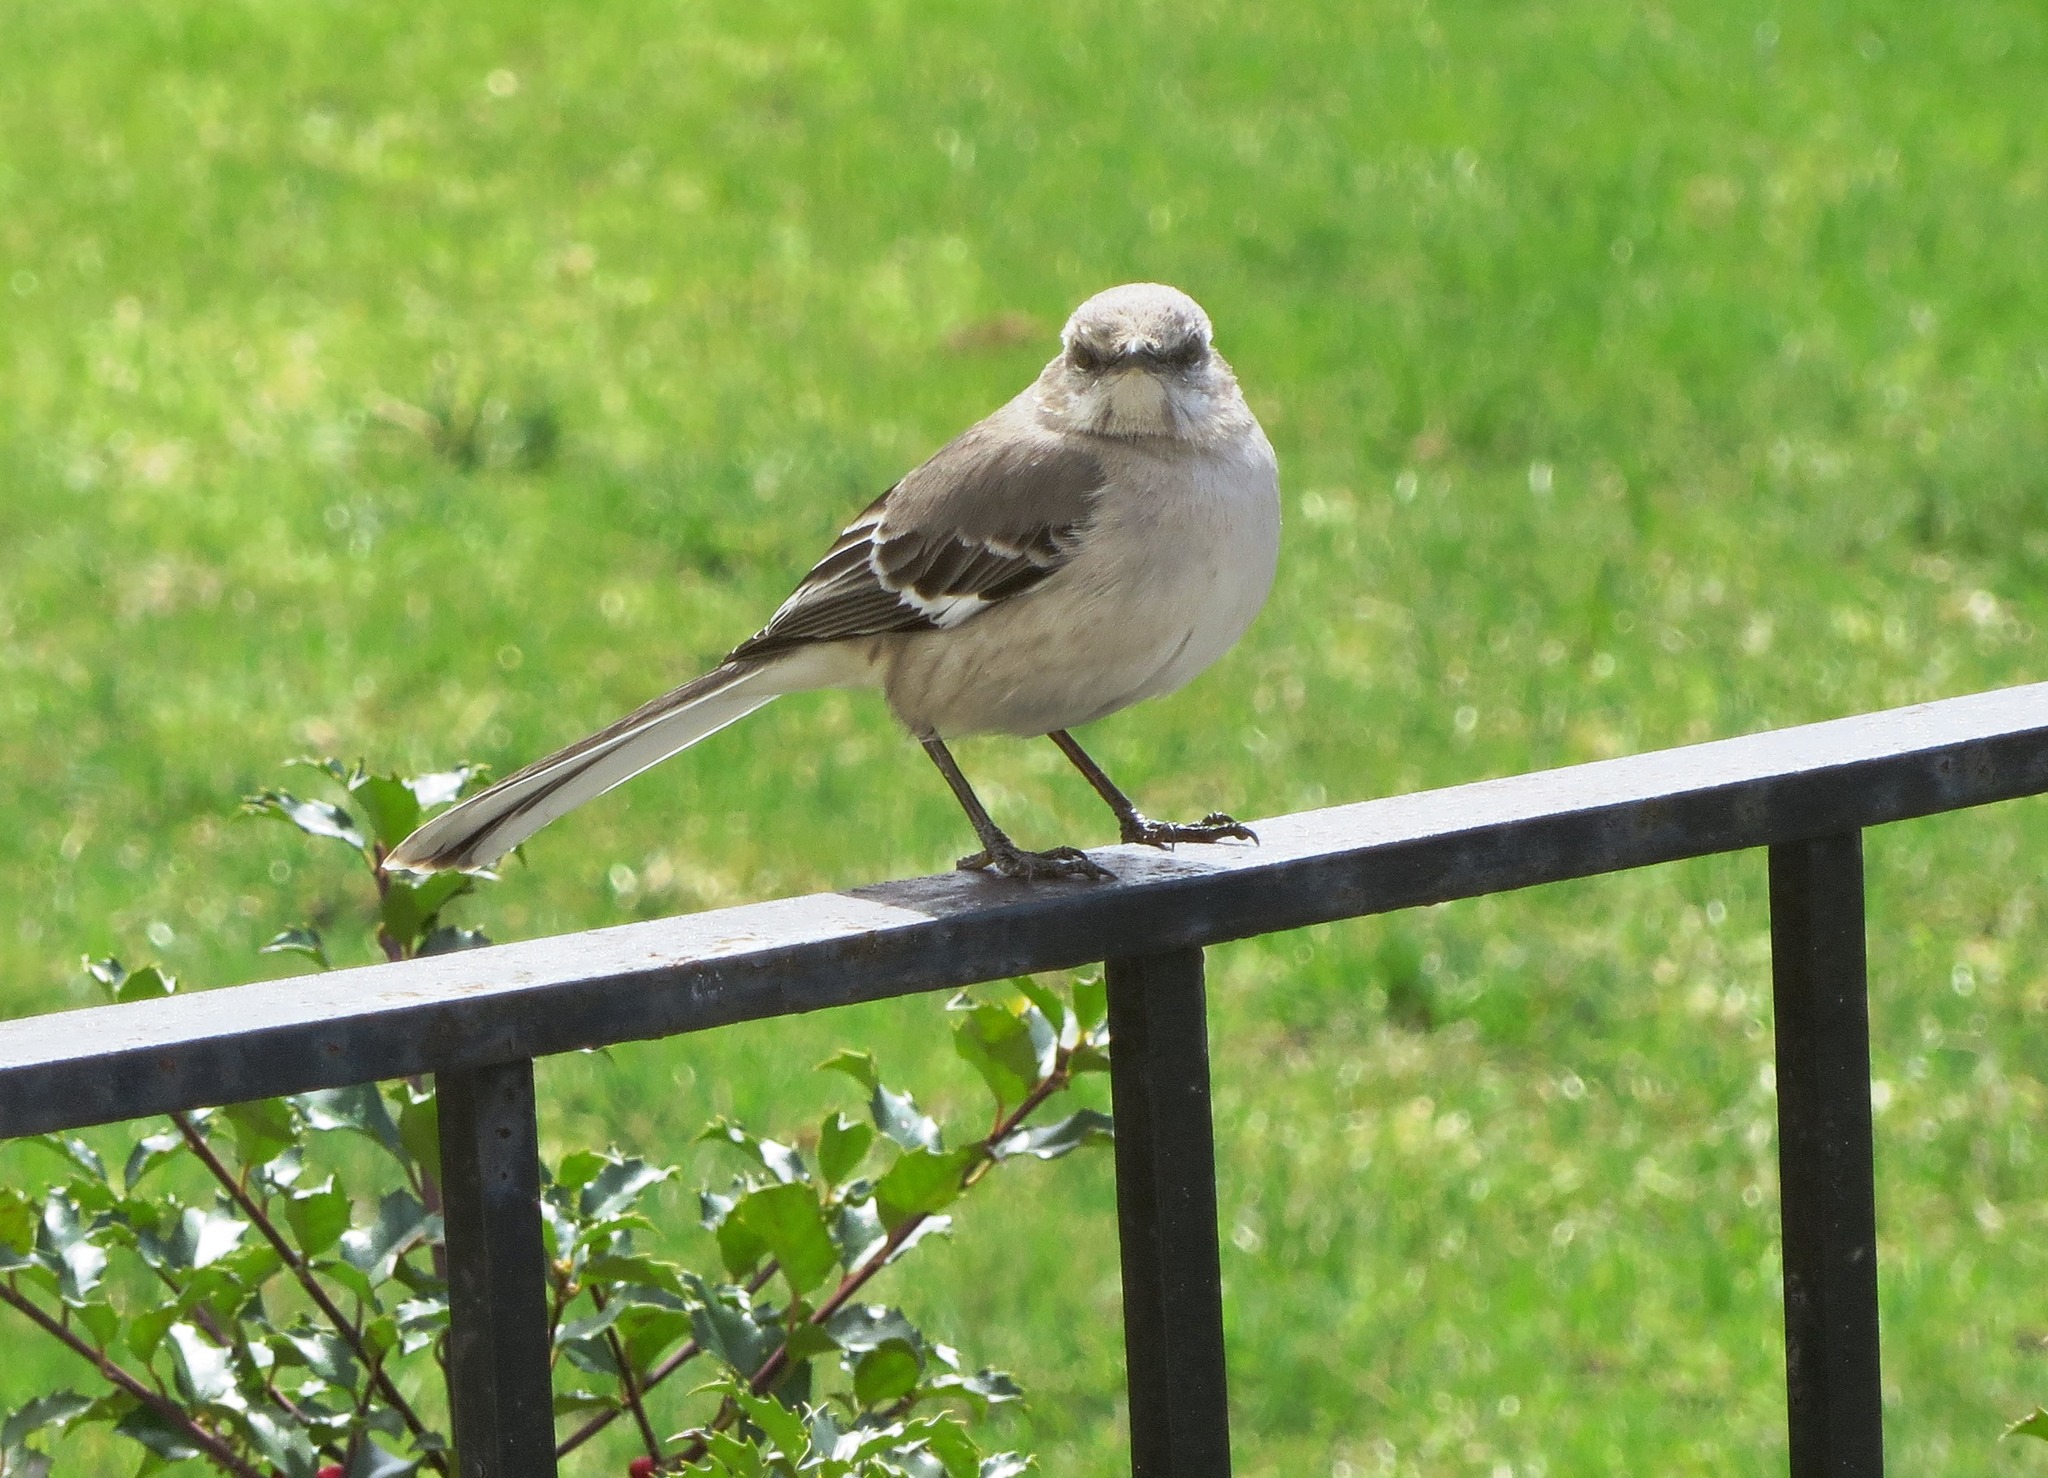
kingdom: Animalia
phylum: Chordata
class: Aves
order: Passeriformes
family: Mimidae
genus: Mimus
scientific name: Mimus polyglottos
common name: Northern mockingbird
